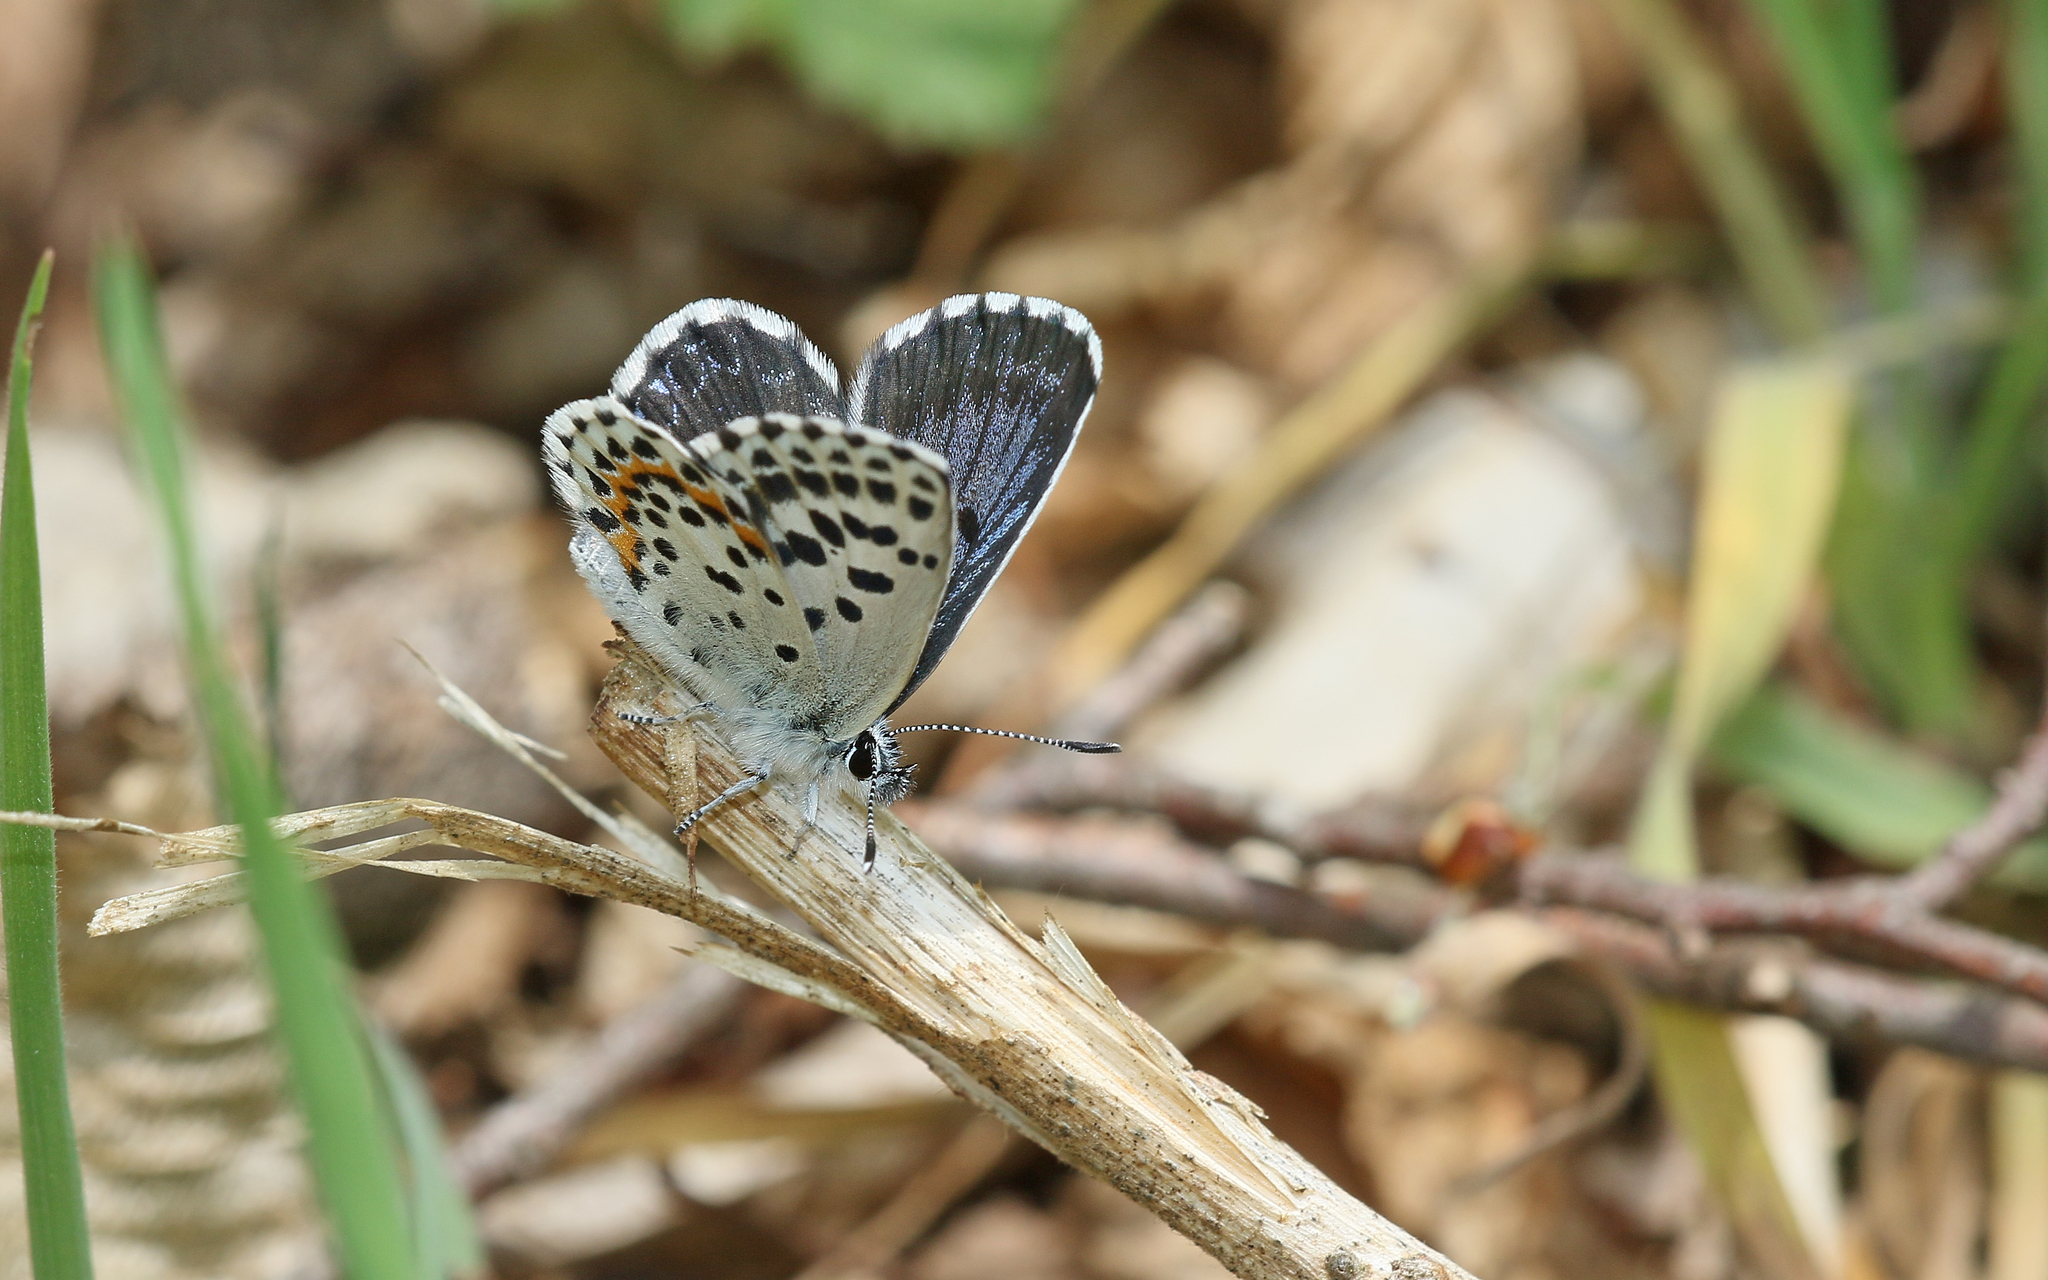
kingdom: Animalia
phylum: Arthropoda
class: Insecta
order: Lepidoptera
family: Lycaenidae
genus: Scolitantides
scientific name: Scolitantides orion
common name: Chequered blue
